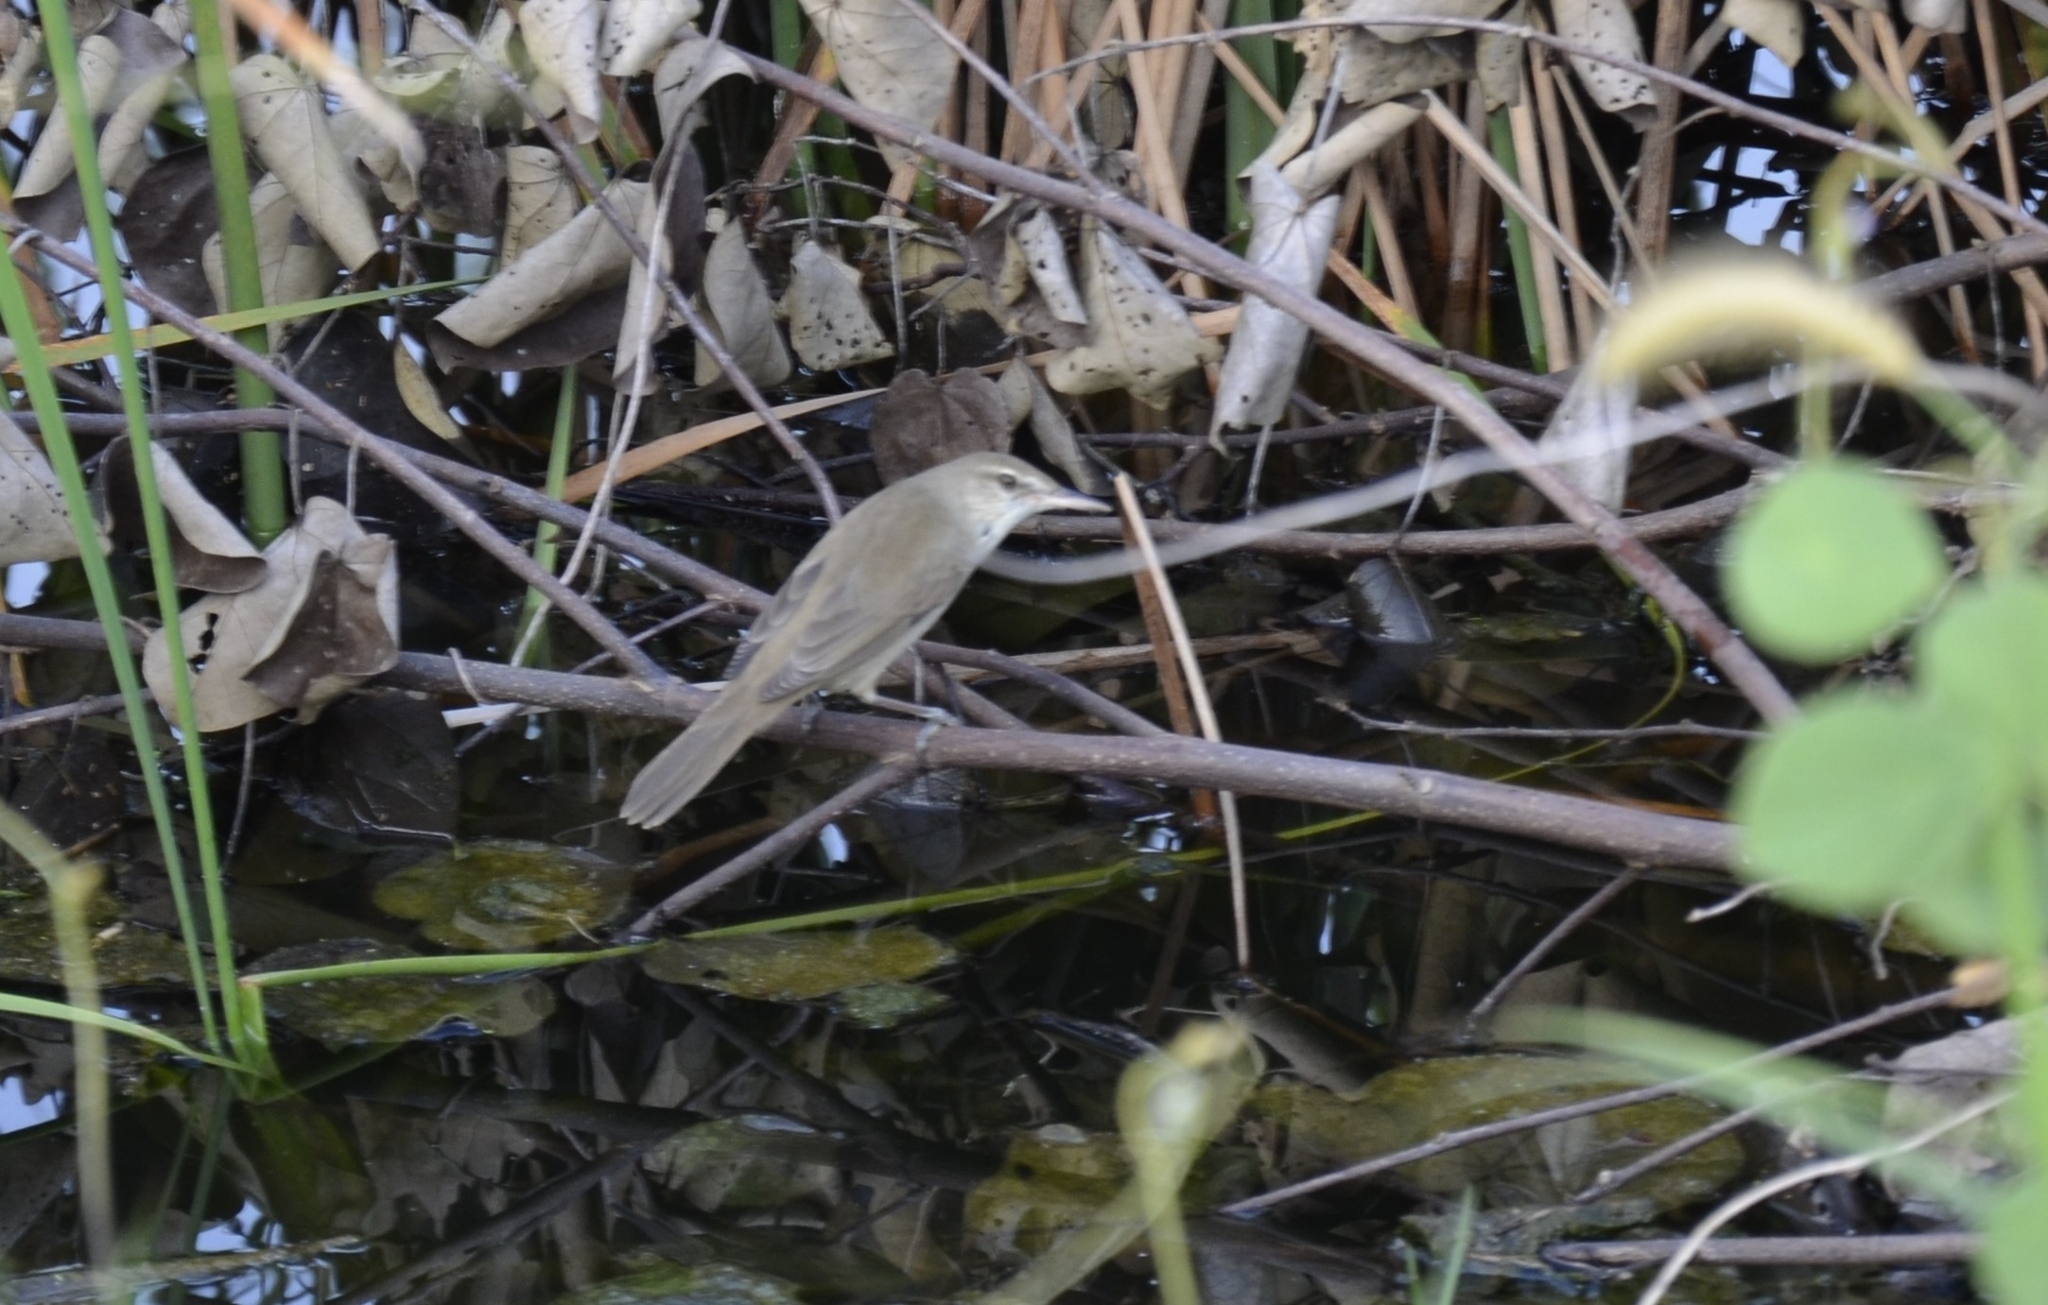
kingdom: Animalia
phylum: Chordata
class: Aves
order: Passeriformes
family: Acrocephalidae
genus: Acrocephalus
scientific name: Acrocephalus stentoreus
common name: Clamorous reed warbler
